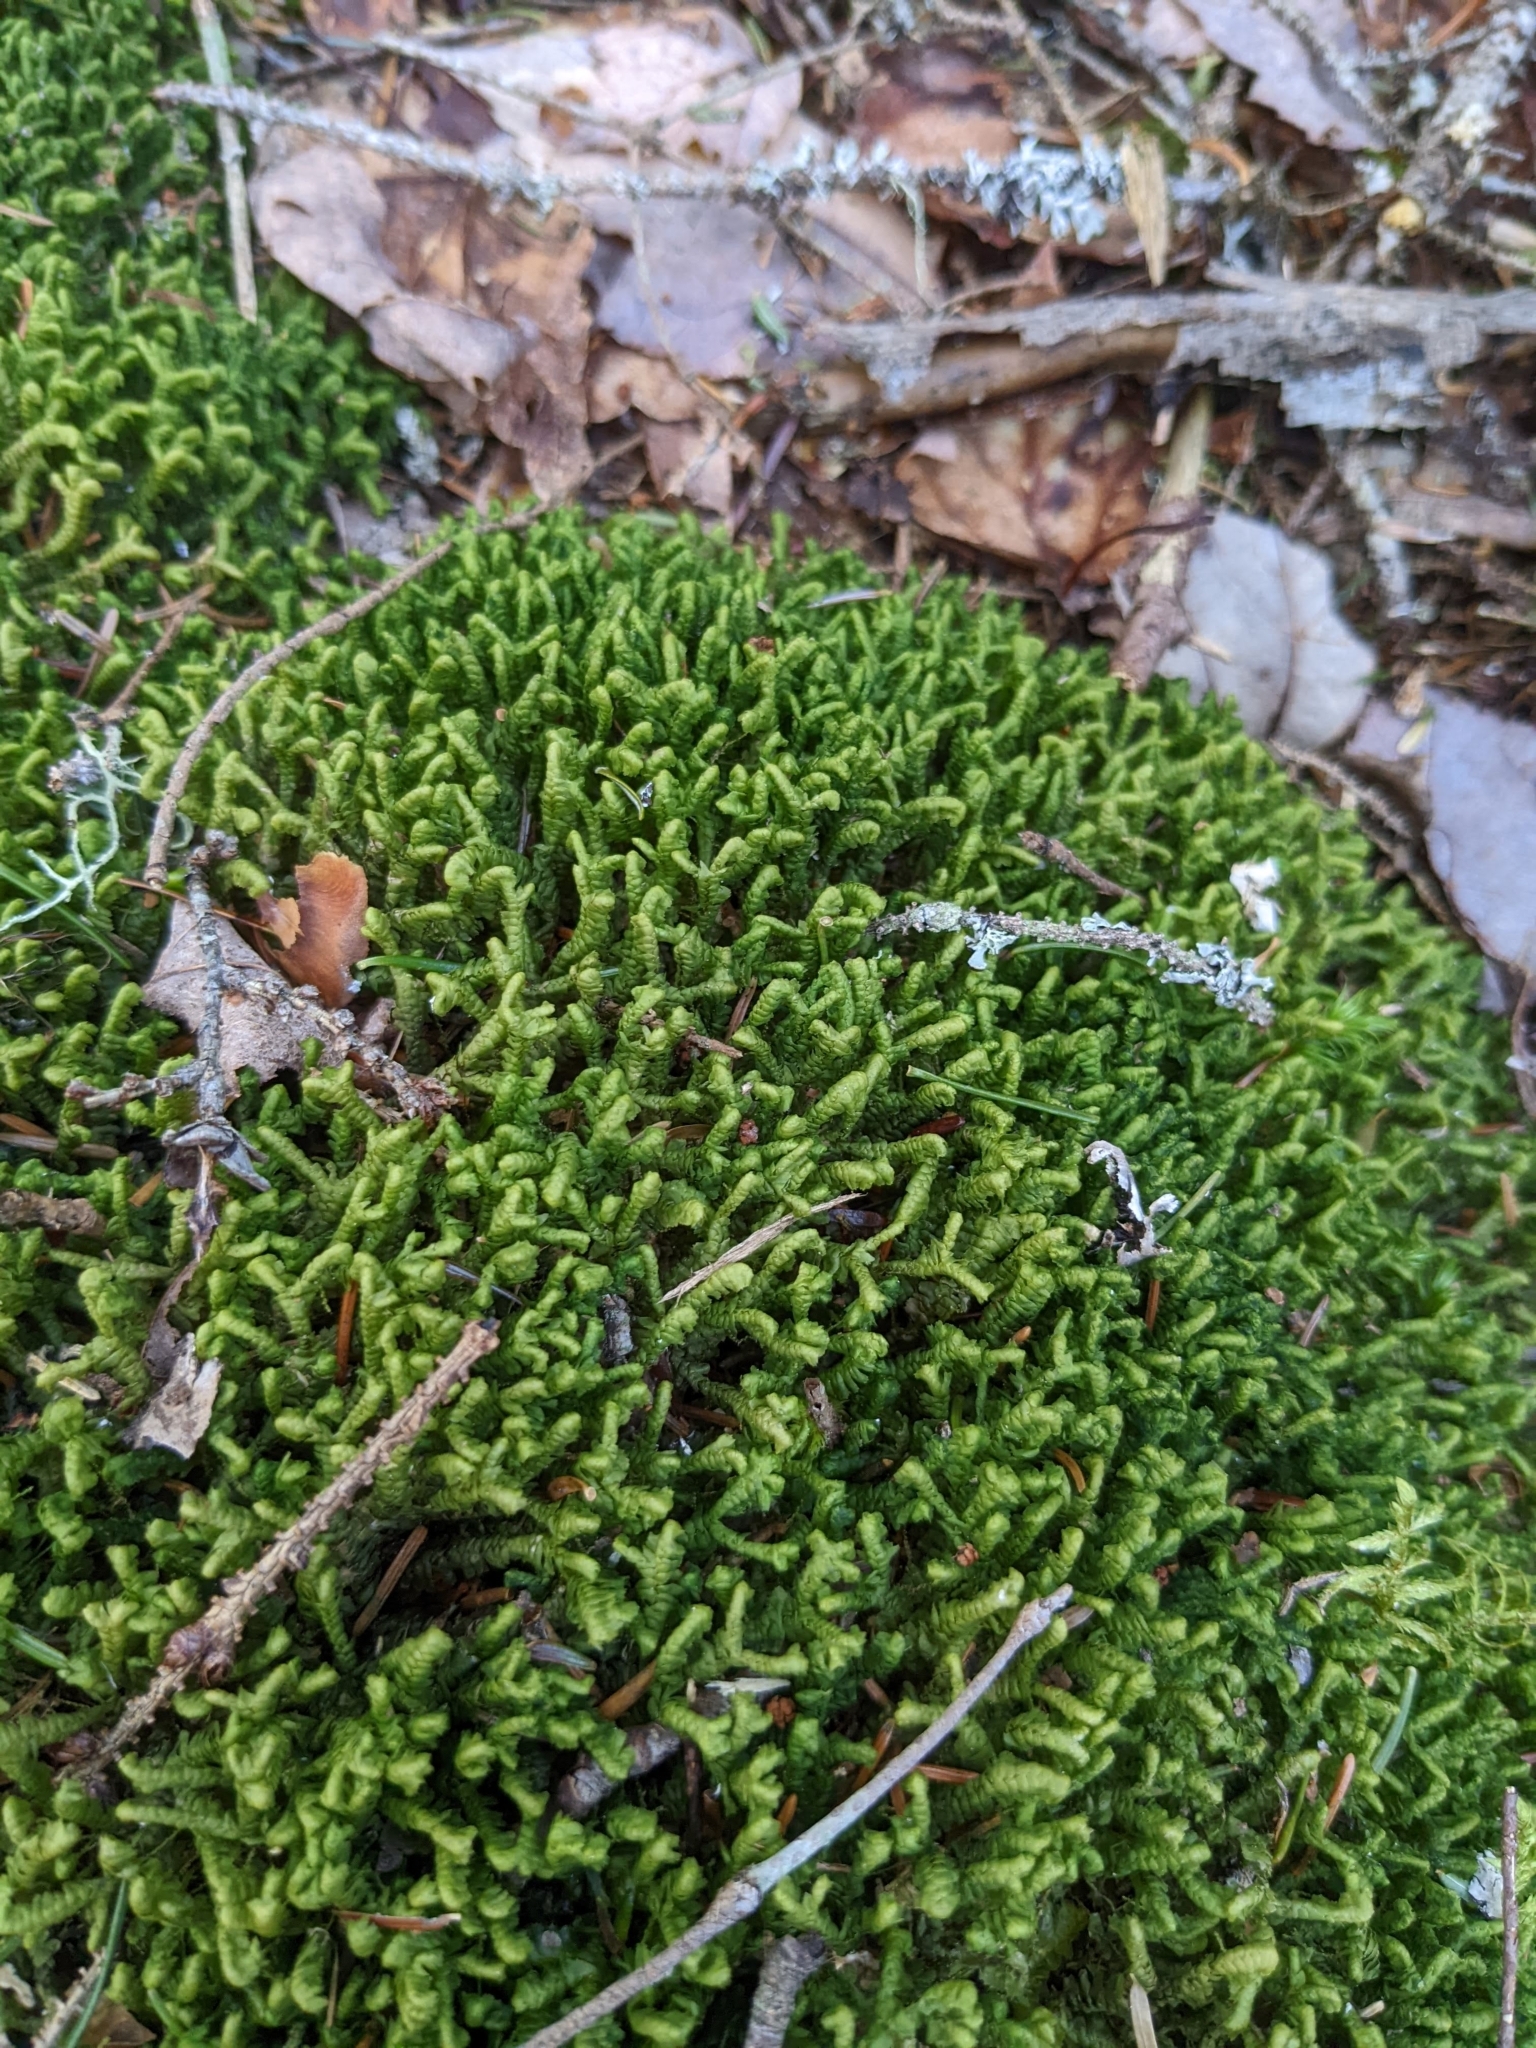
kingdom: Plantae
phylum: Marchantiophyta
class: Jungermanniopsida
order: Jungermanniales
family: Lepidoziaceae
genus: Bazzania
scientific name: Bazzania trilobata
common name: Three-lobed whipwort
